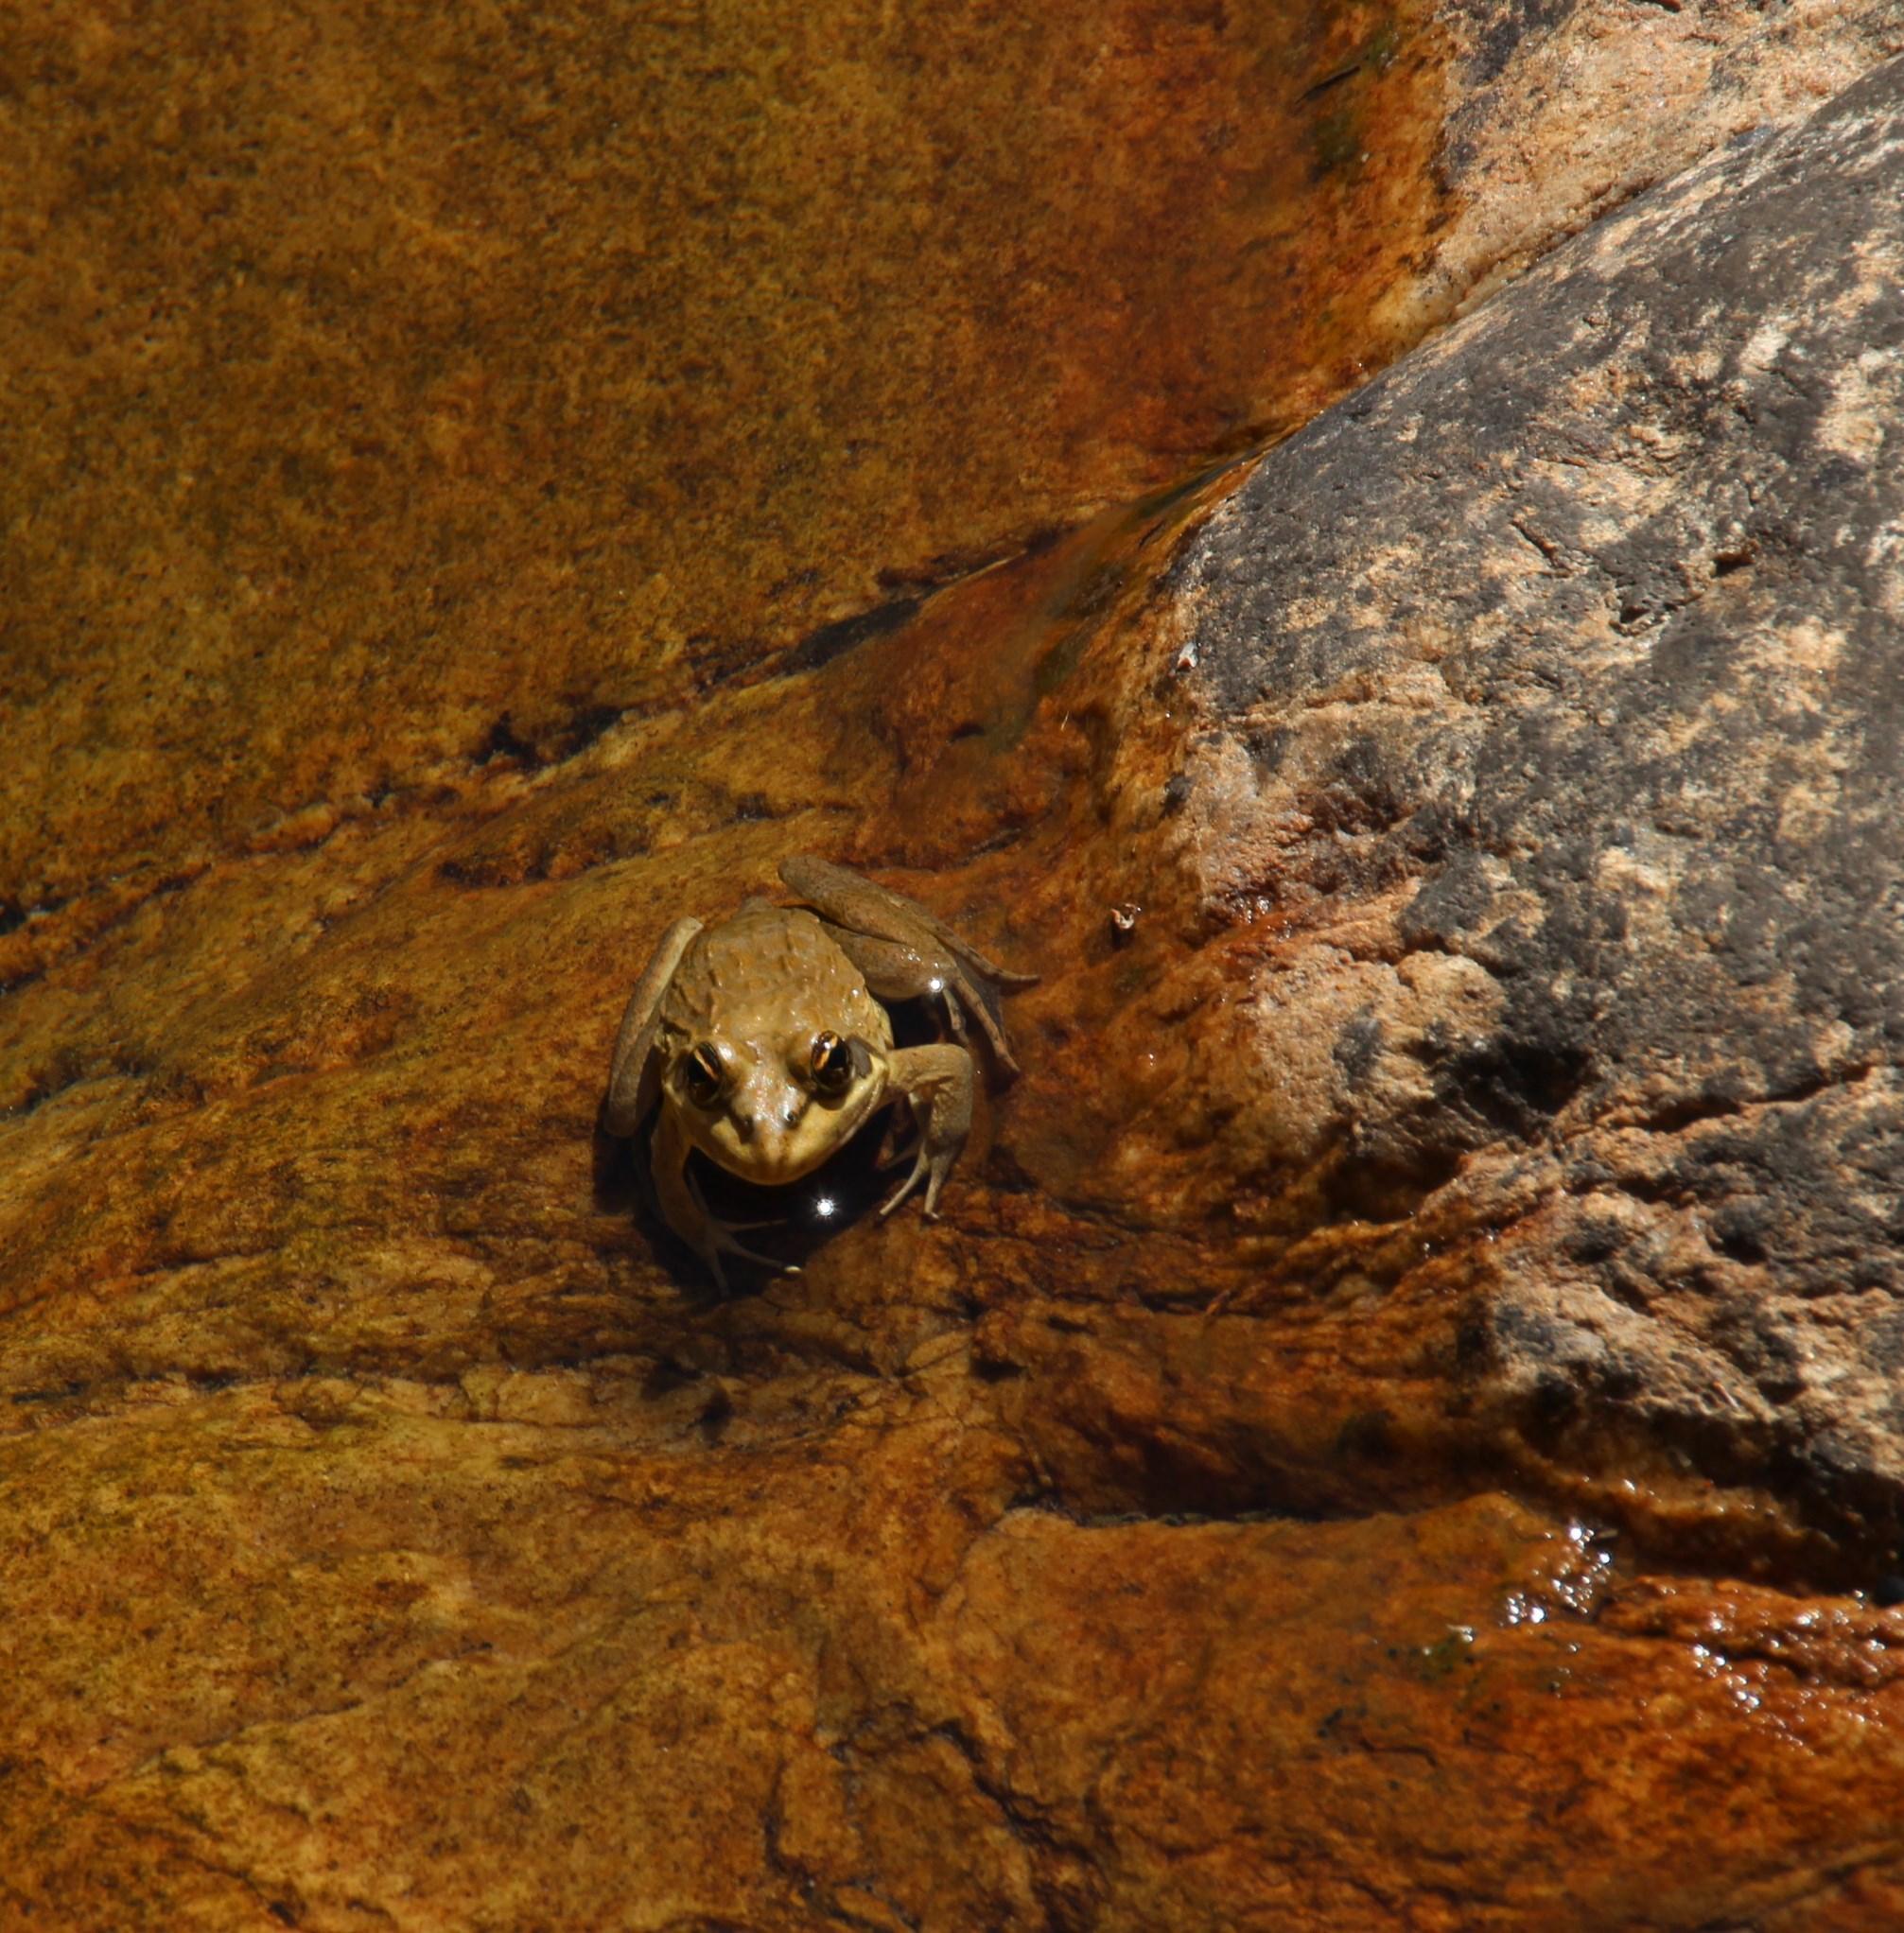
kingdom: Animalia
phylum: Chordata
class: Amphibia
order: Anura
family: Pyxicephalidae
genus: Amietia
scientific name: Amietia fuscigula
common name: Cape rana
